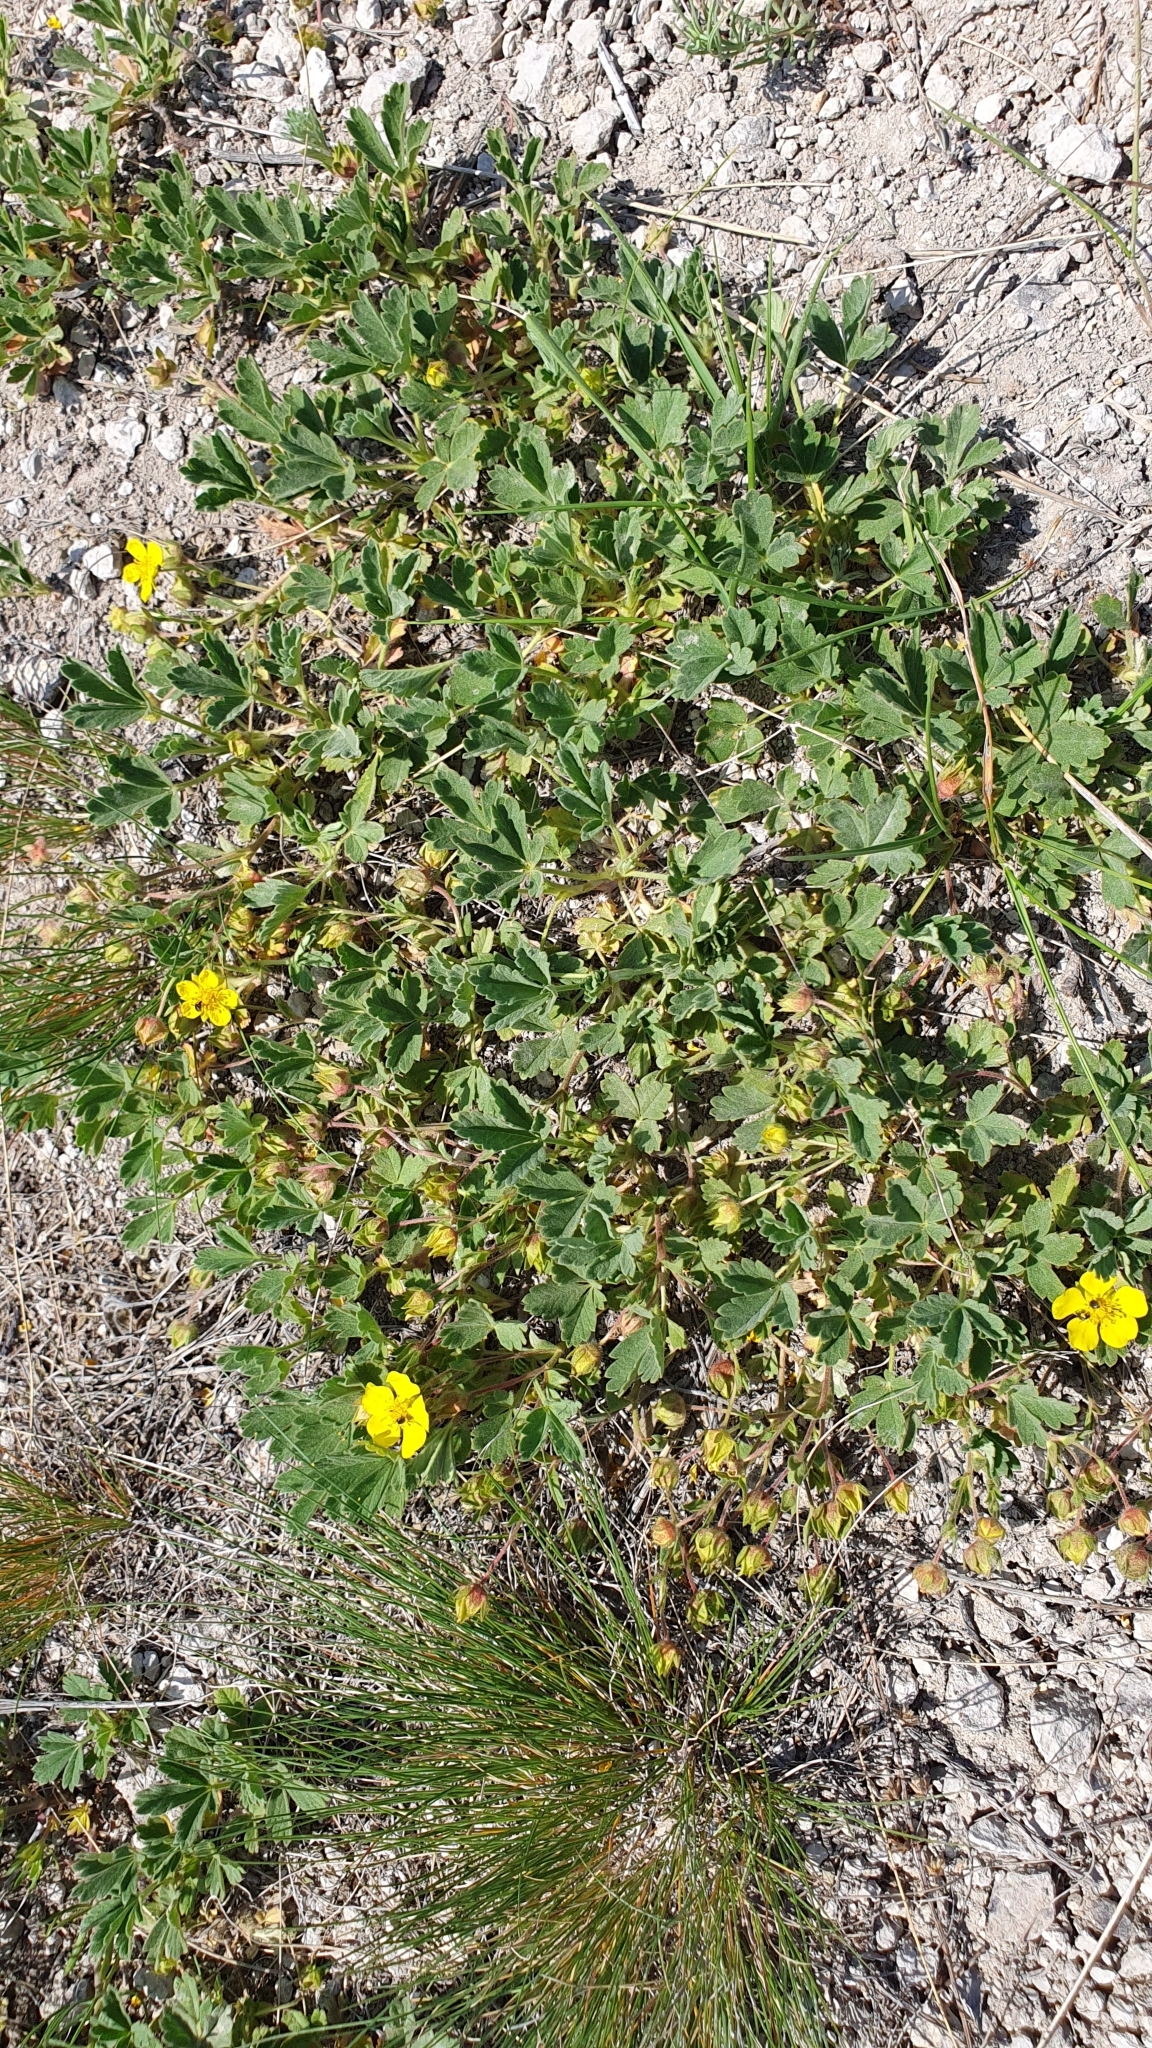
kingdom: Plantae
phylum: Tracheophyta
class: Magnoliopsida
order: Rosales
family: Rosaceae
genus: Potentilla
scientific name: Potentilla incana
